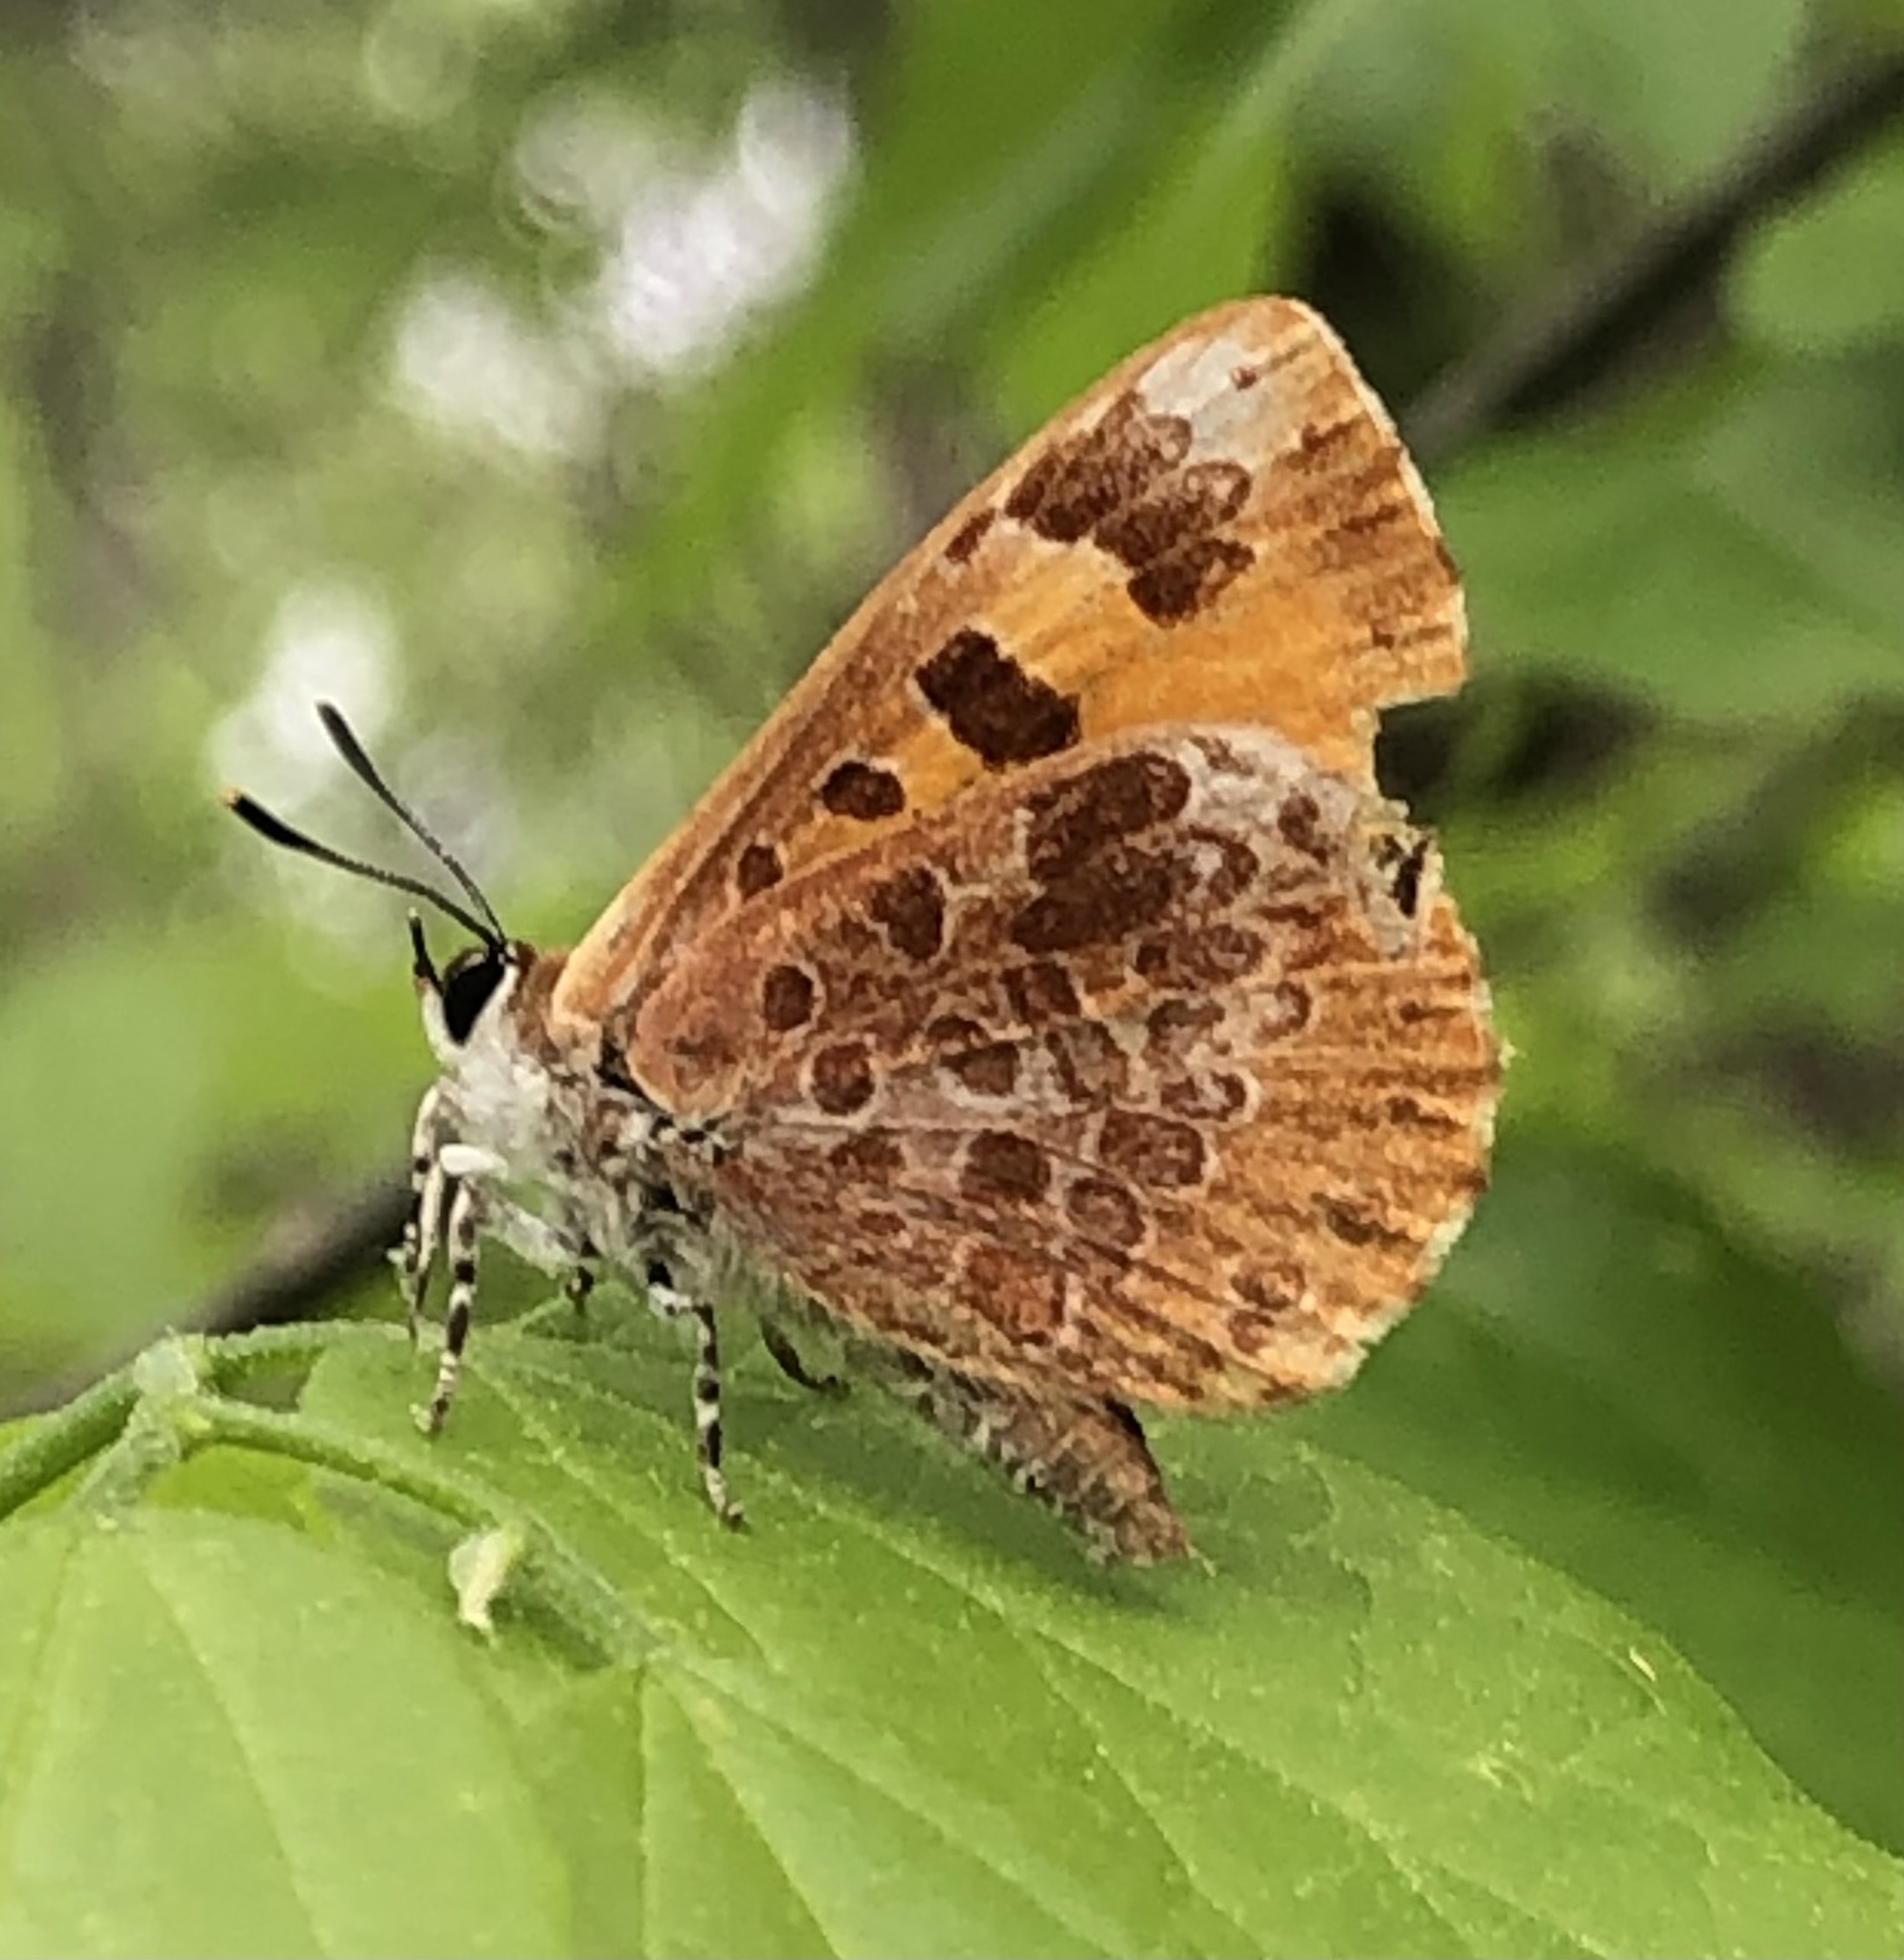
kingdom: Animalia
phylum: Arthropoda
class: Insecta
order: Lepidoptera
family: Lycaenidae
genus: Feniseca
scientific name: Feniseca tarquinius
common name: Harvester
